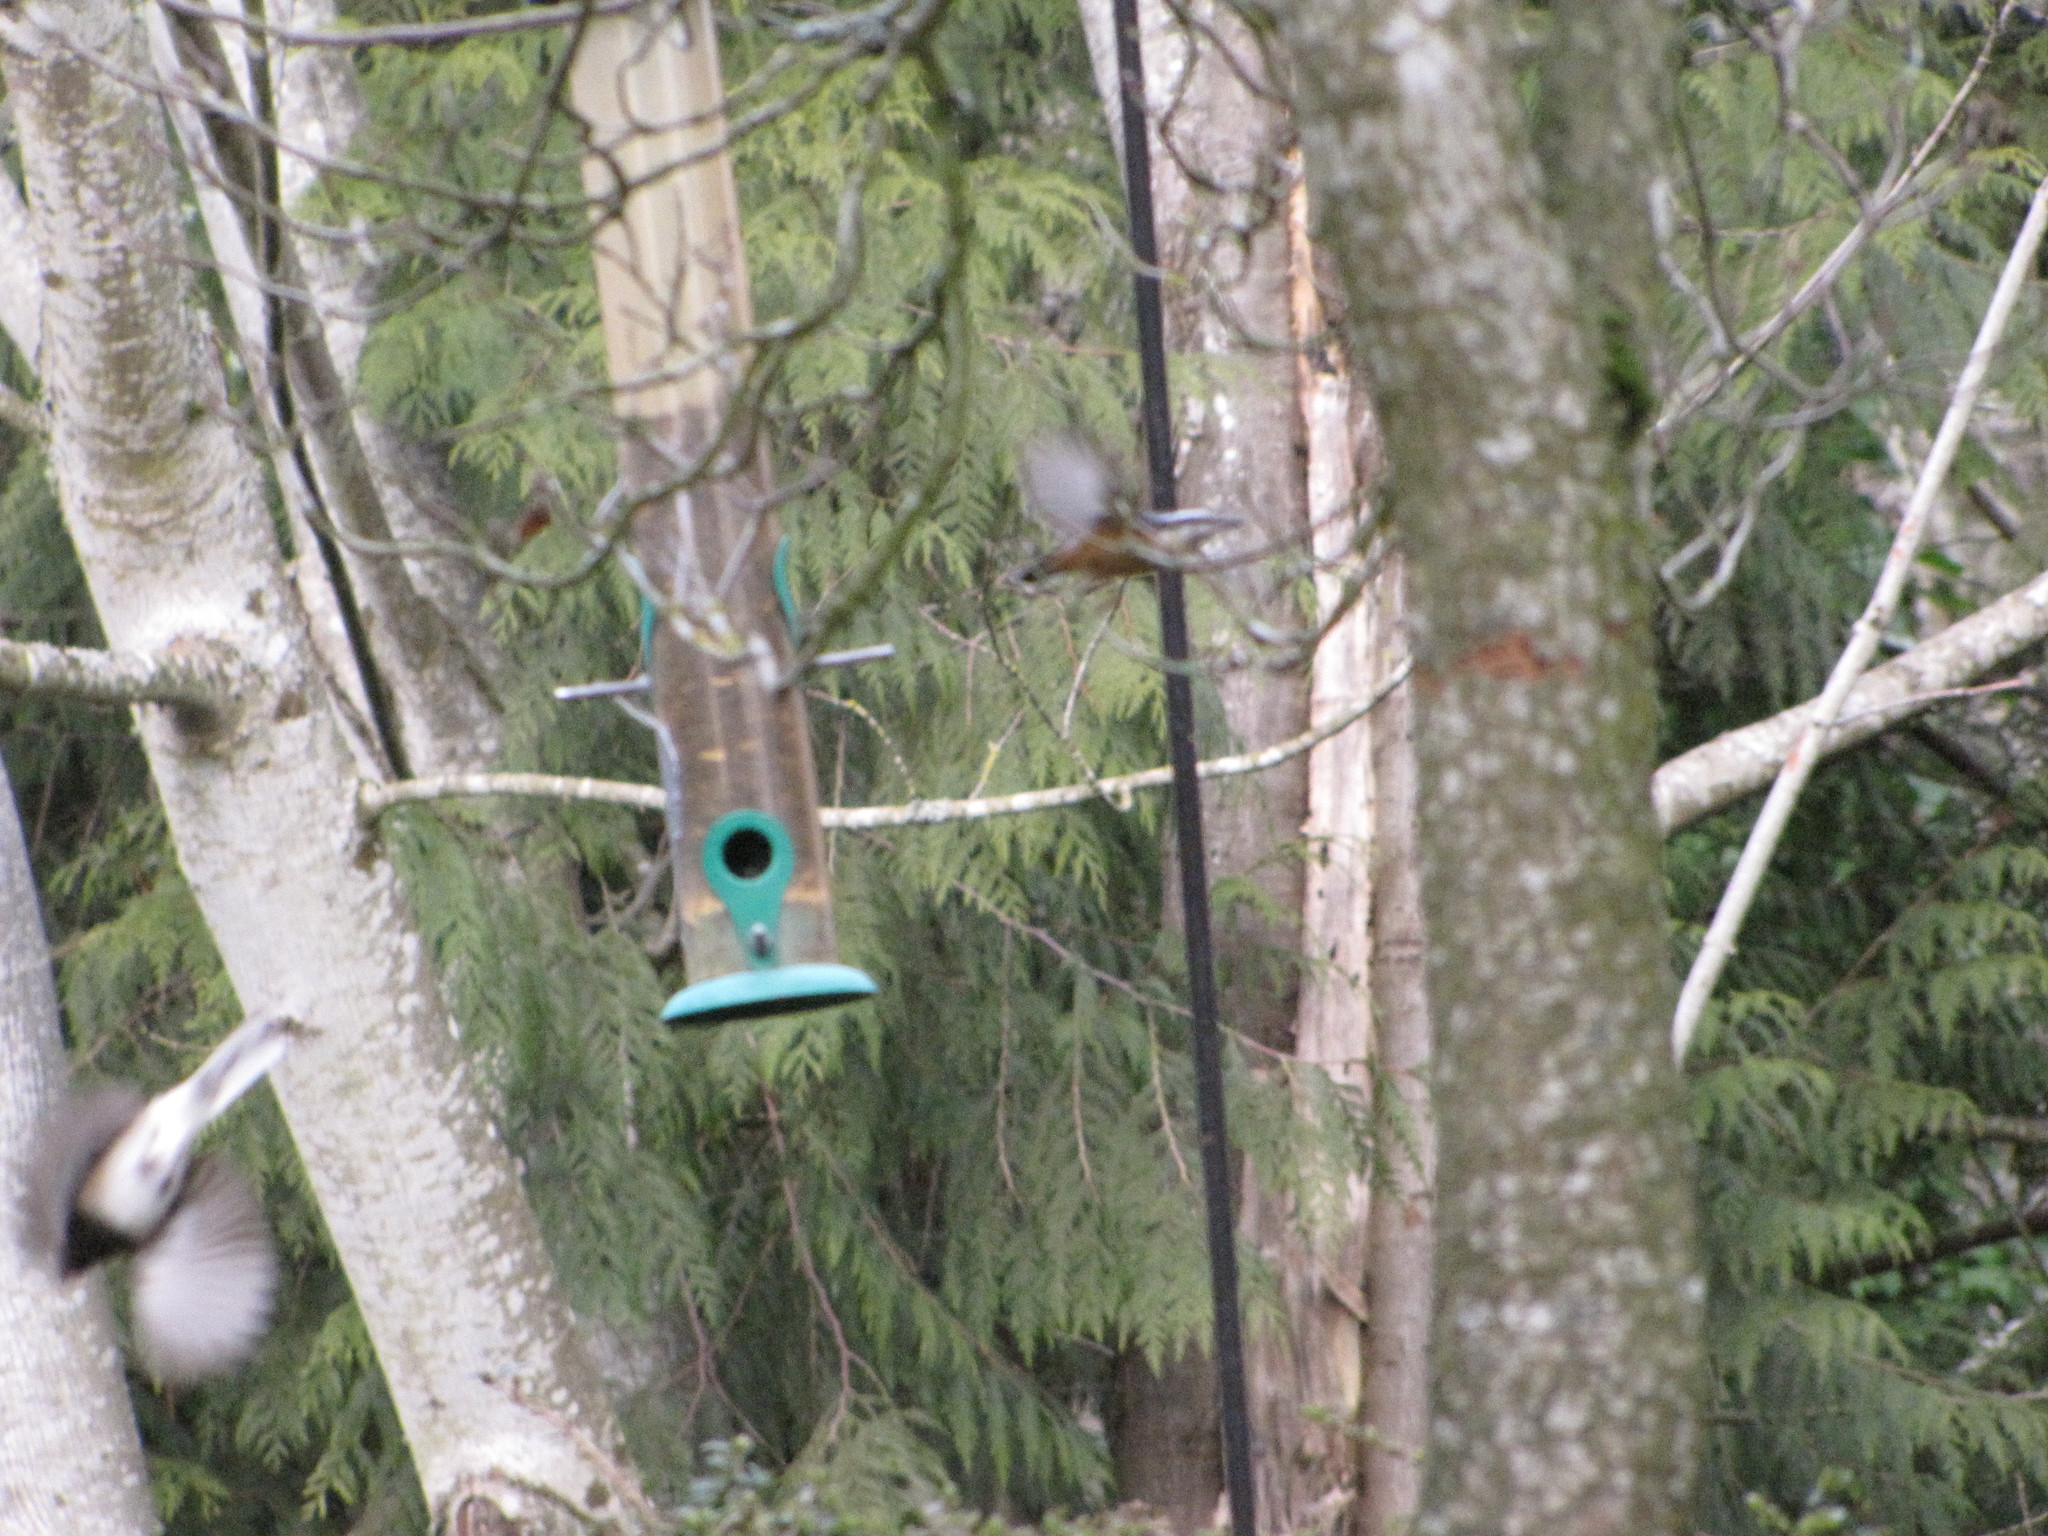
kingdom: Animalia
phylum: Chordata
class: Aves
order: Passeriformes
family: Sittidae
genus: Sitta
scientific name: Sitta canadensis
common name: Red-breasted nuthatch
